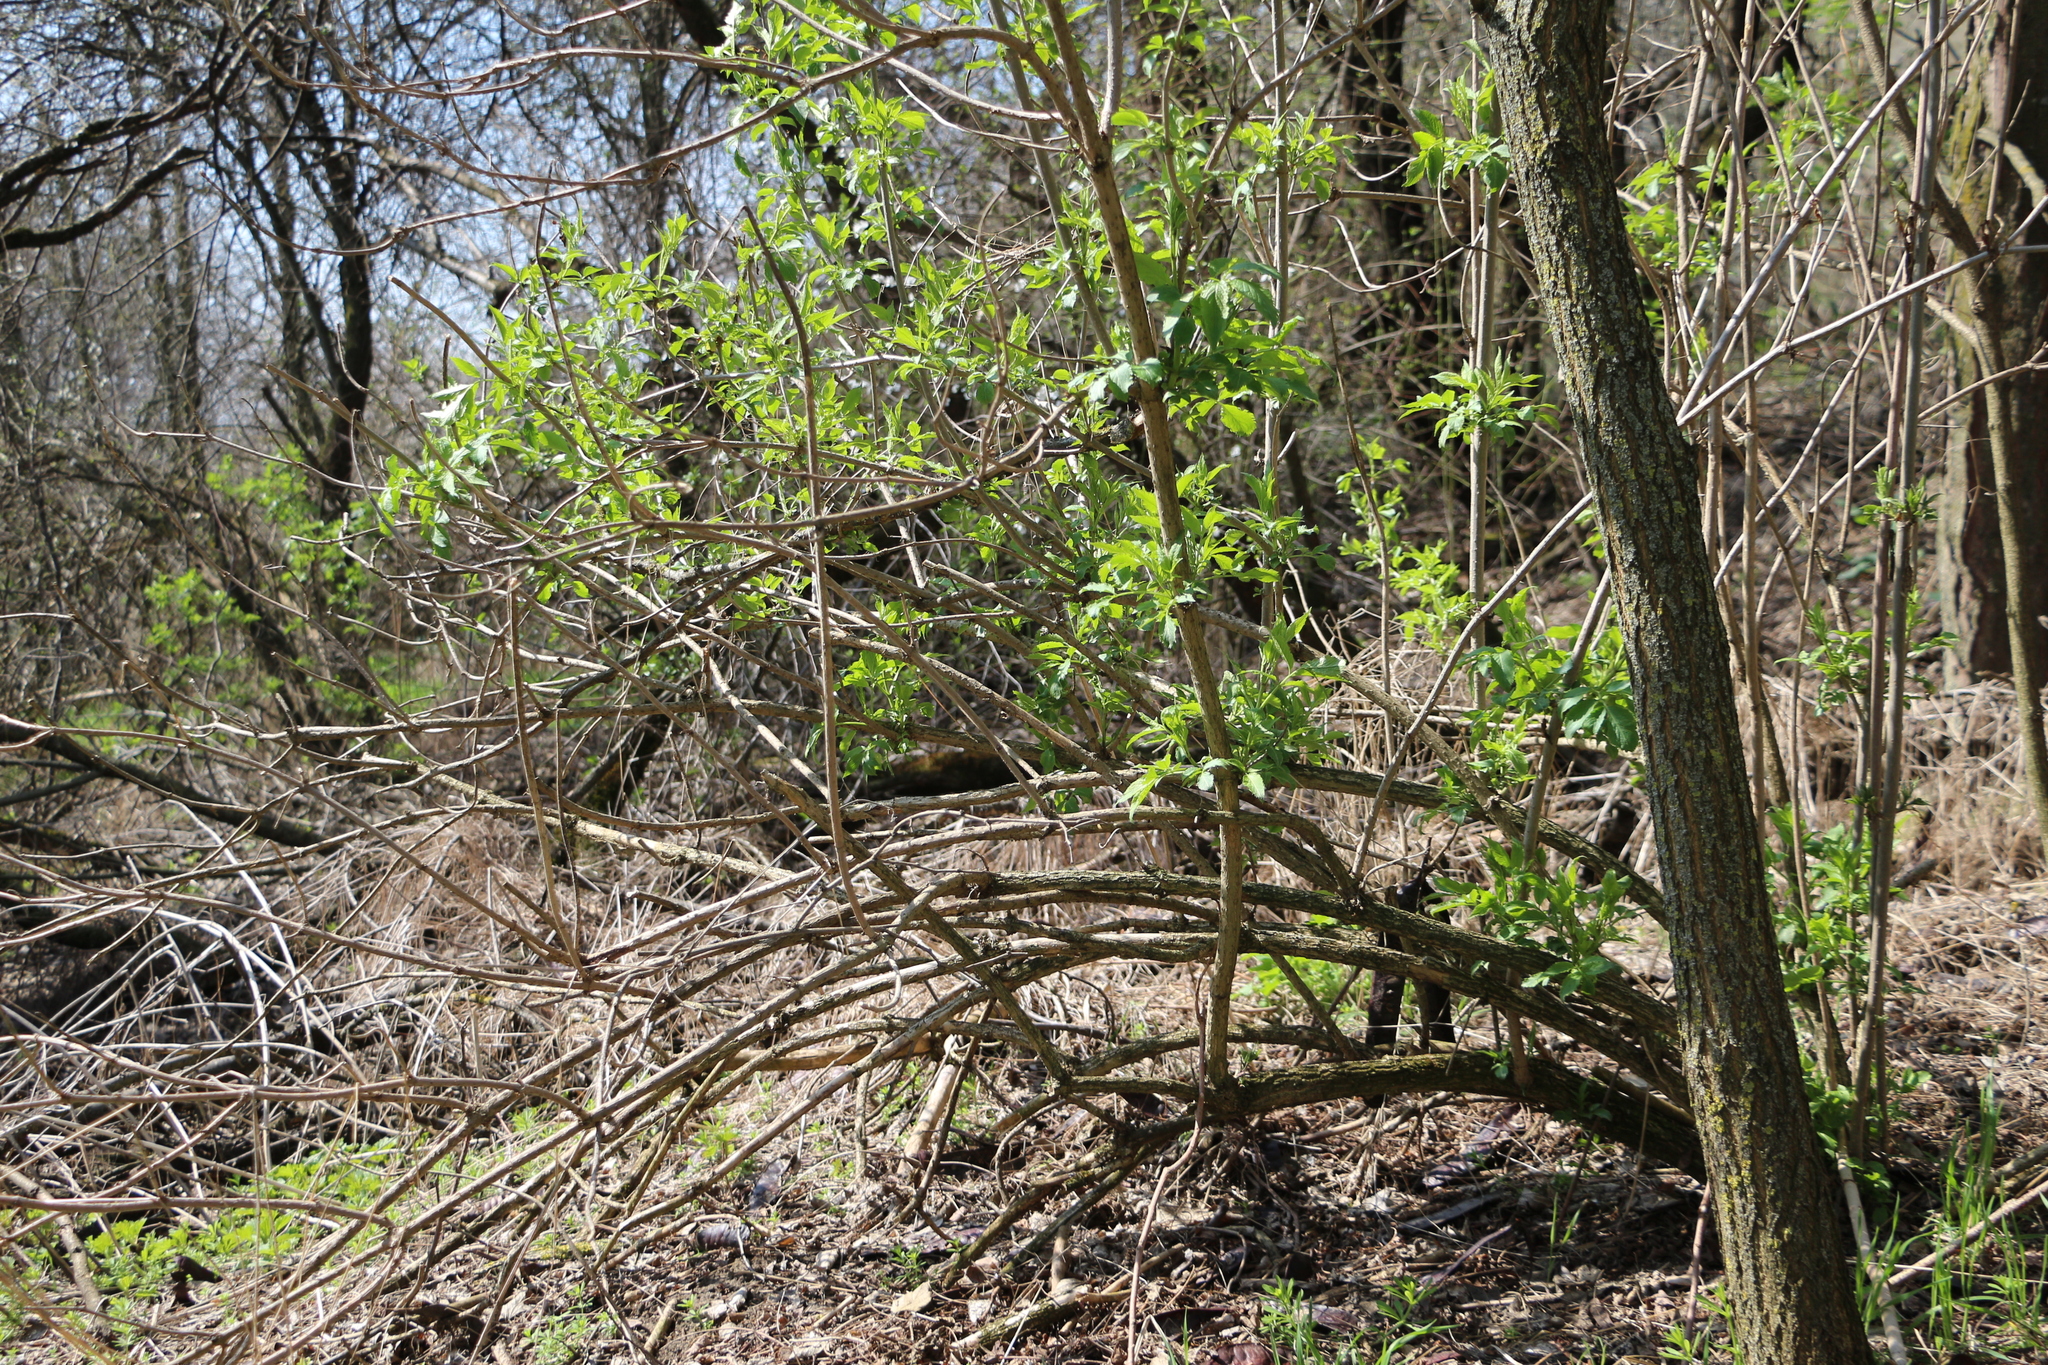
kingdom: Plantae
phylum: Tracheophyta
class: Magnoliopsida
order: Dipsacales
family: Viburnaceae
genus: Sambucus
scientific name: Sambucus nigra
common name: Elder
